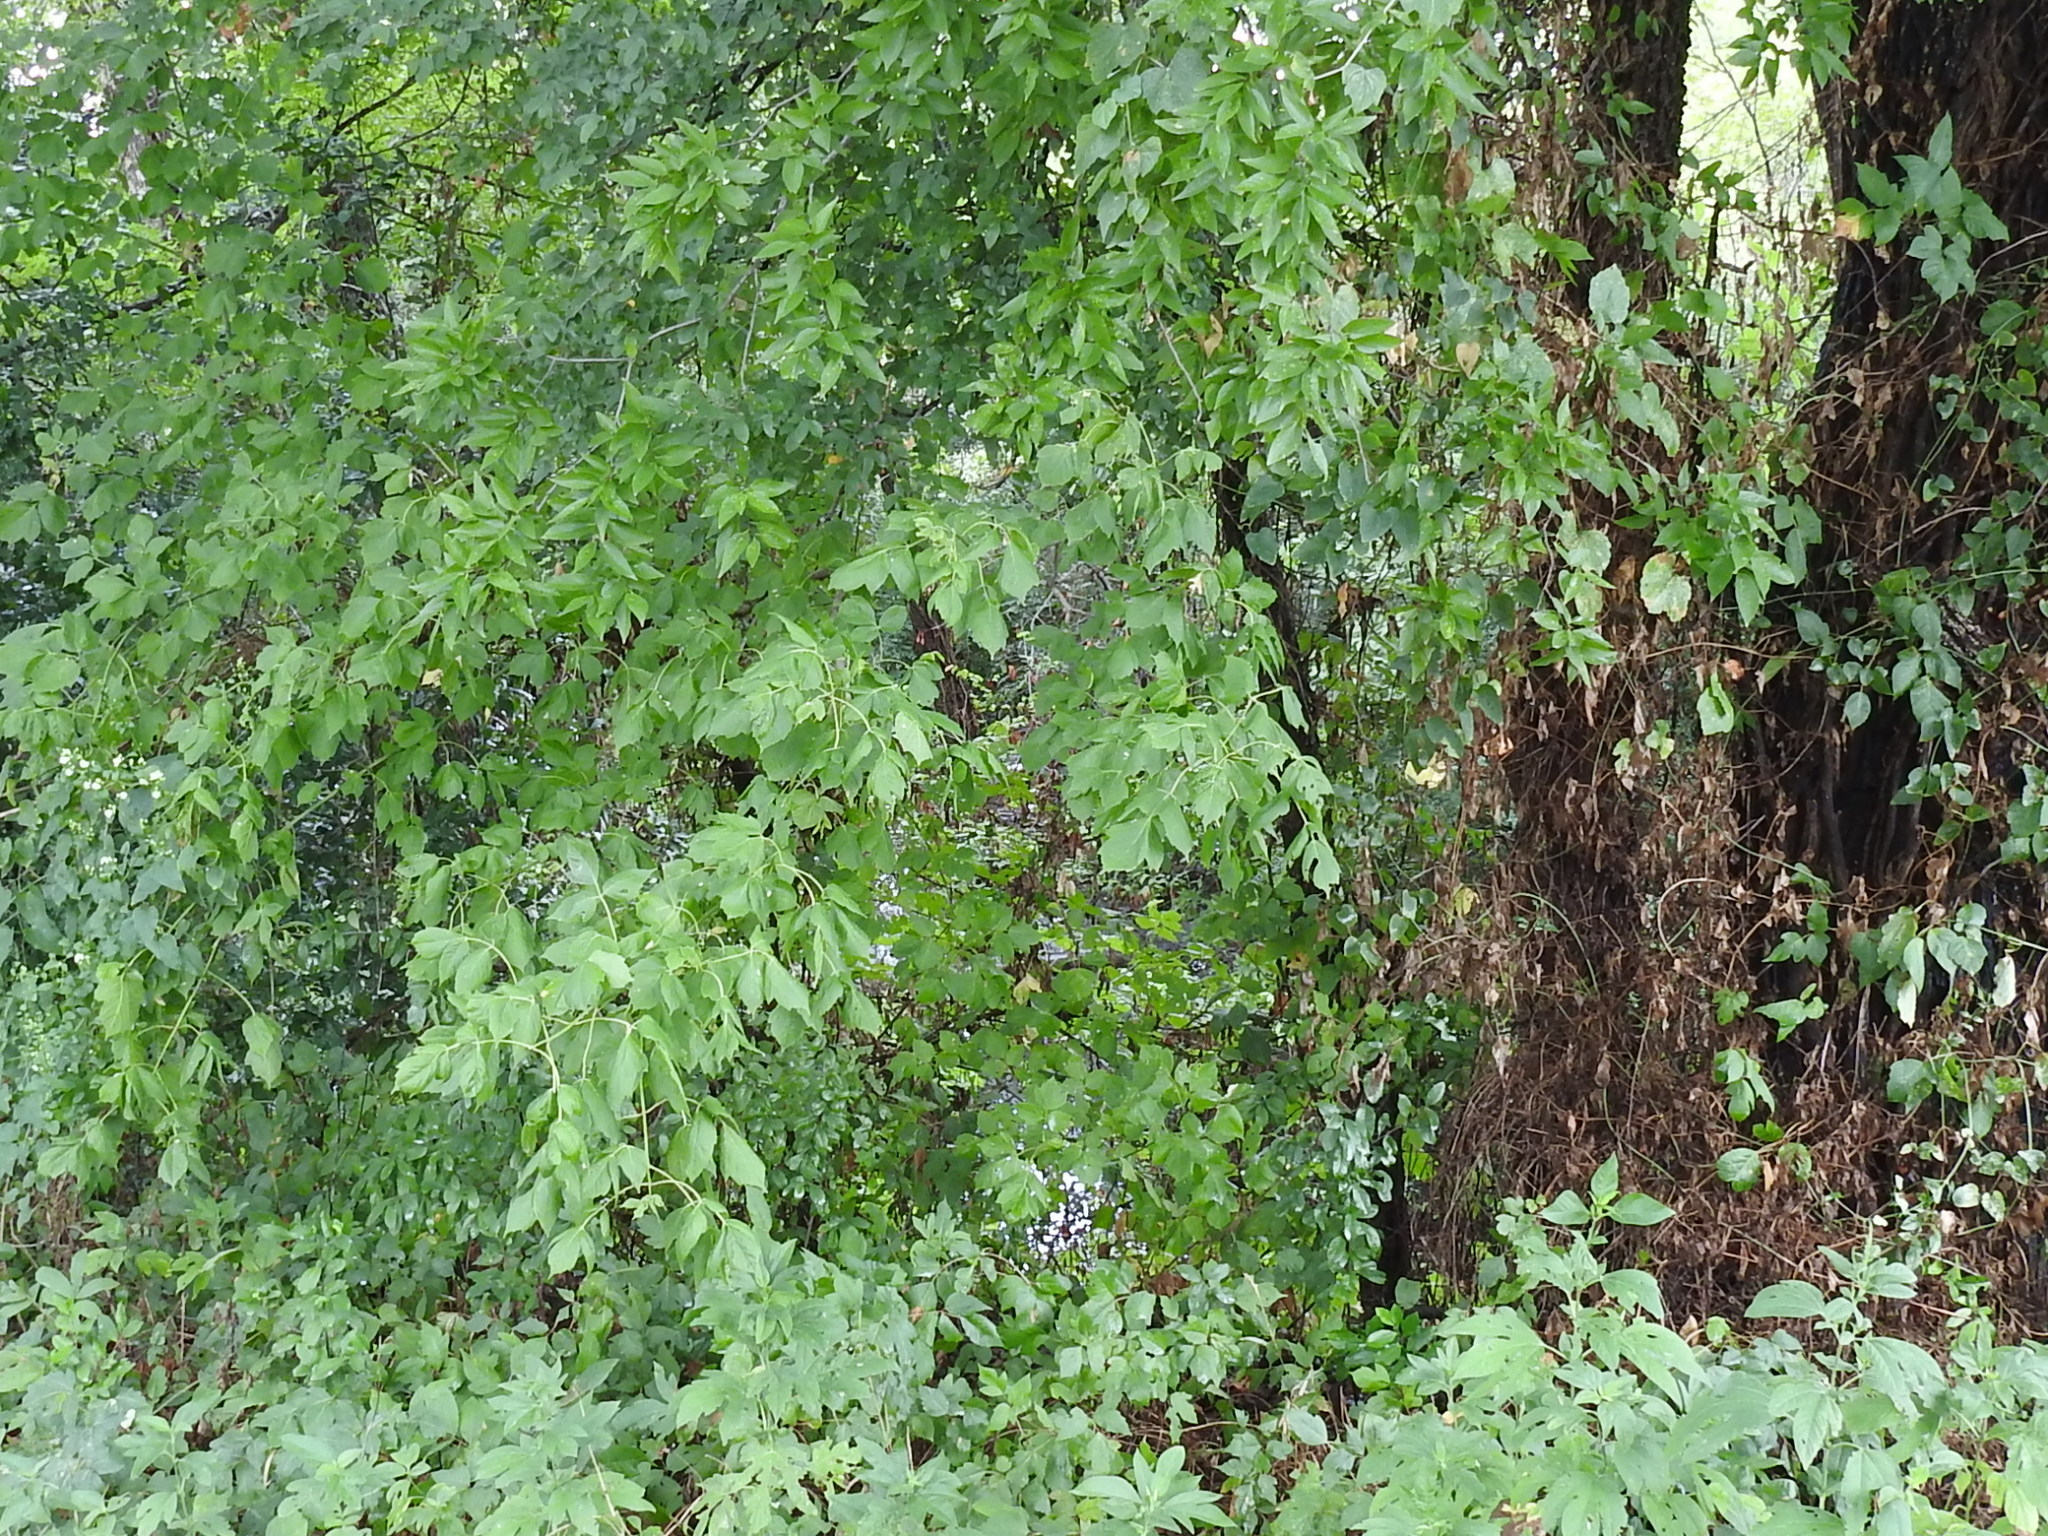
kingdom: Plantae
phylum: Tracheophyta
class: Magnoliopsida
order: Sapindales
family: Sapindaceae
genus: Acer
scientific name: Acer negundo
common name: Ashleaf maple
